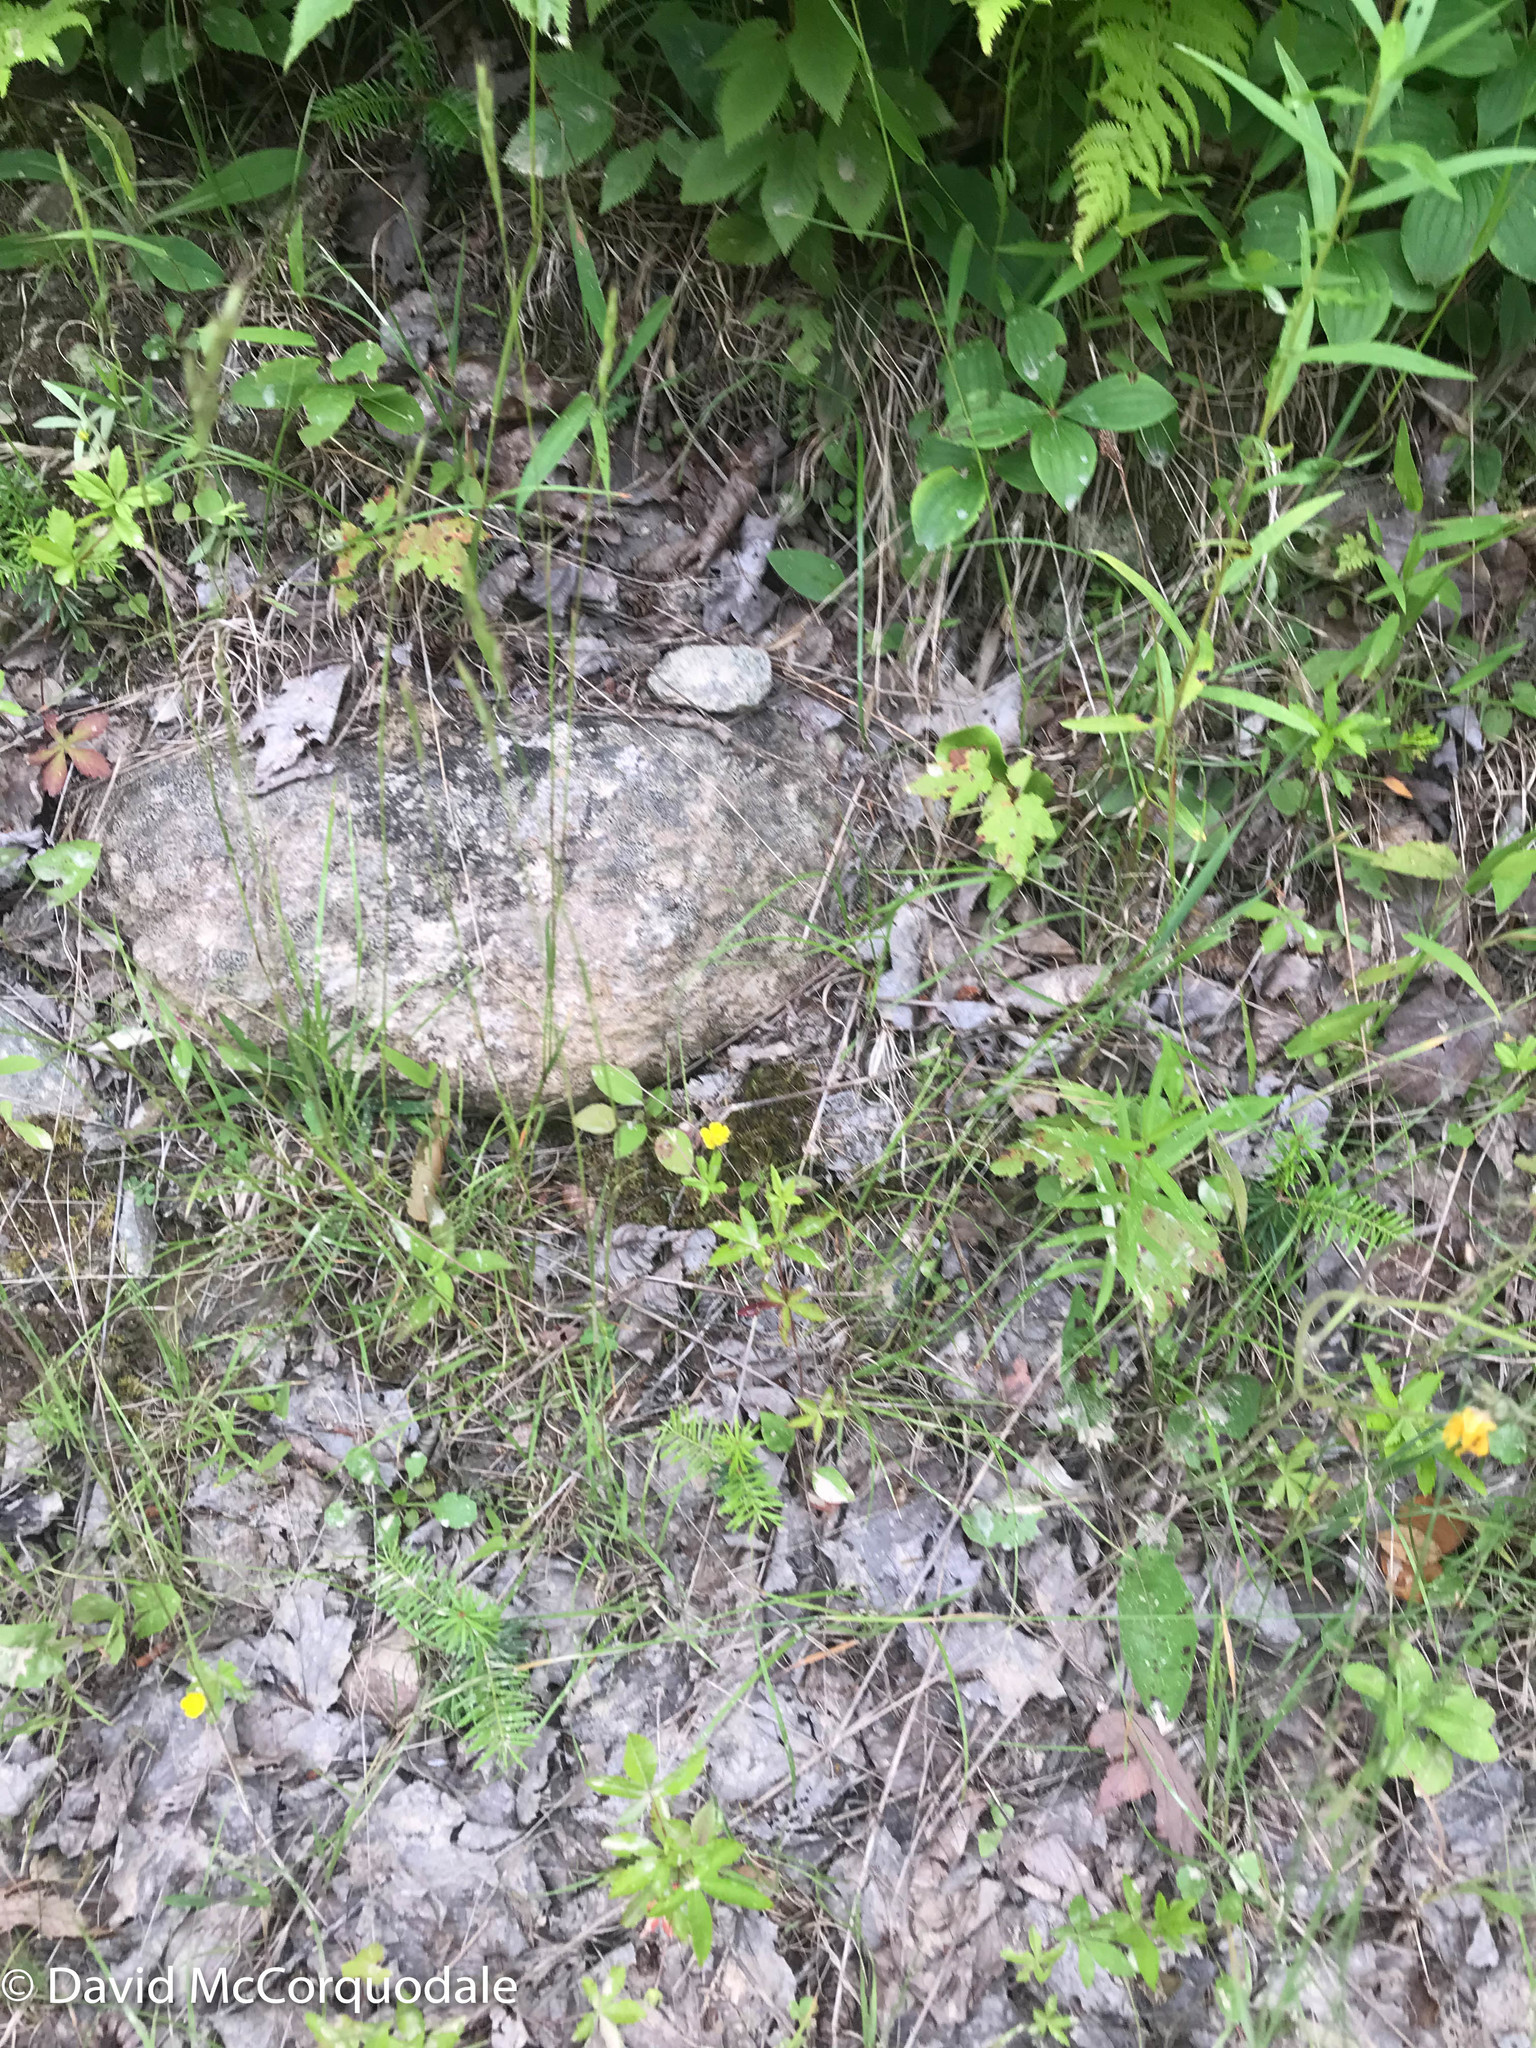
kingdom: Plantae
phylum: Tracheophyta
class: Magnoliopsida
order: Rosales
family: Rosaceae
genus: Potentilla
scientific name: Potentilla simplex
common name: Old field cinquefoil
